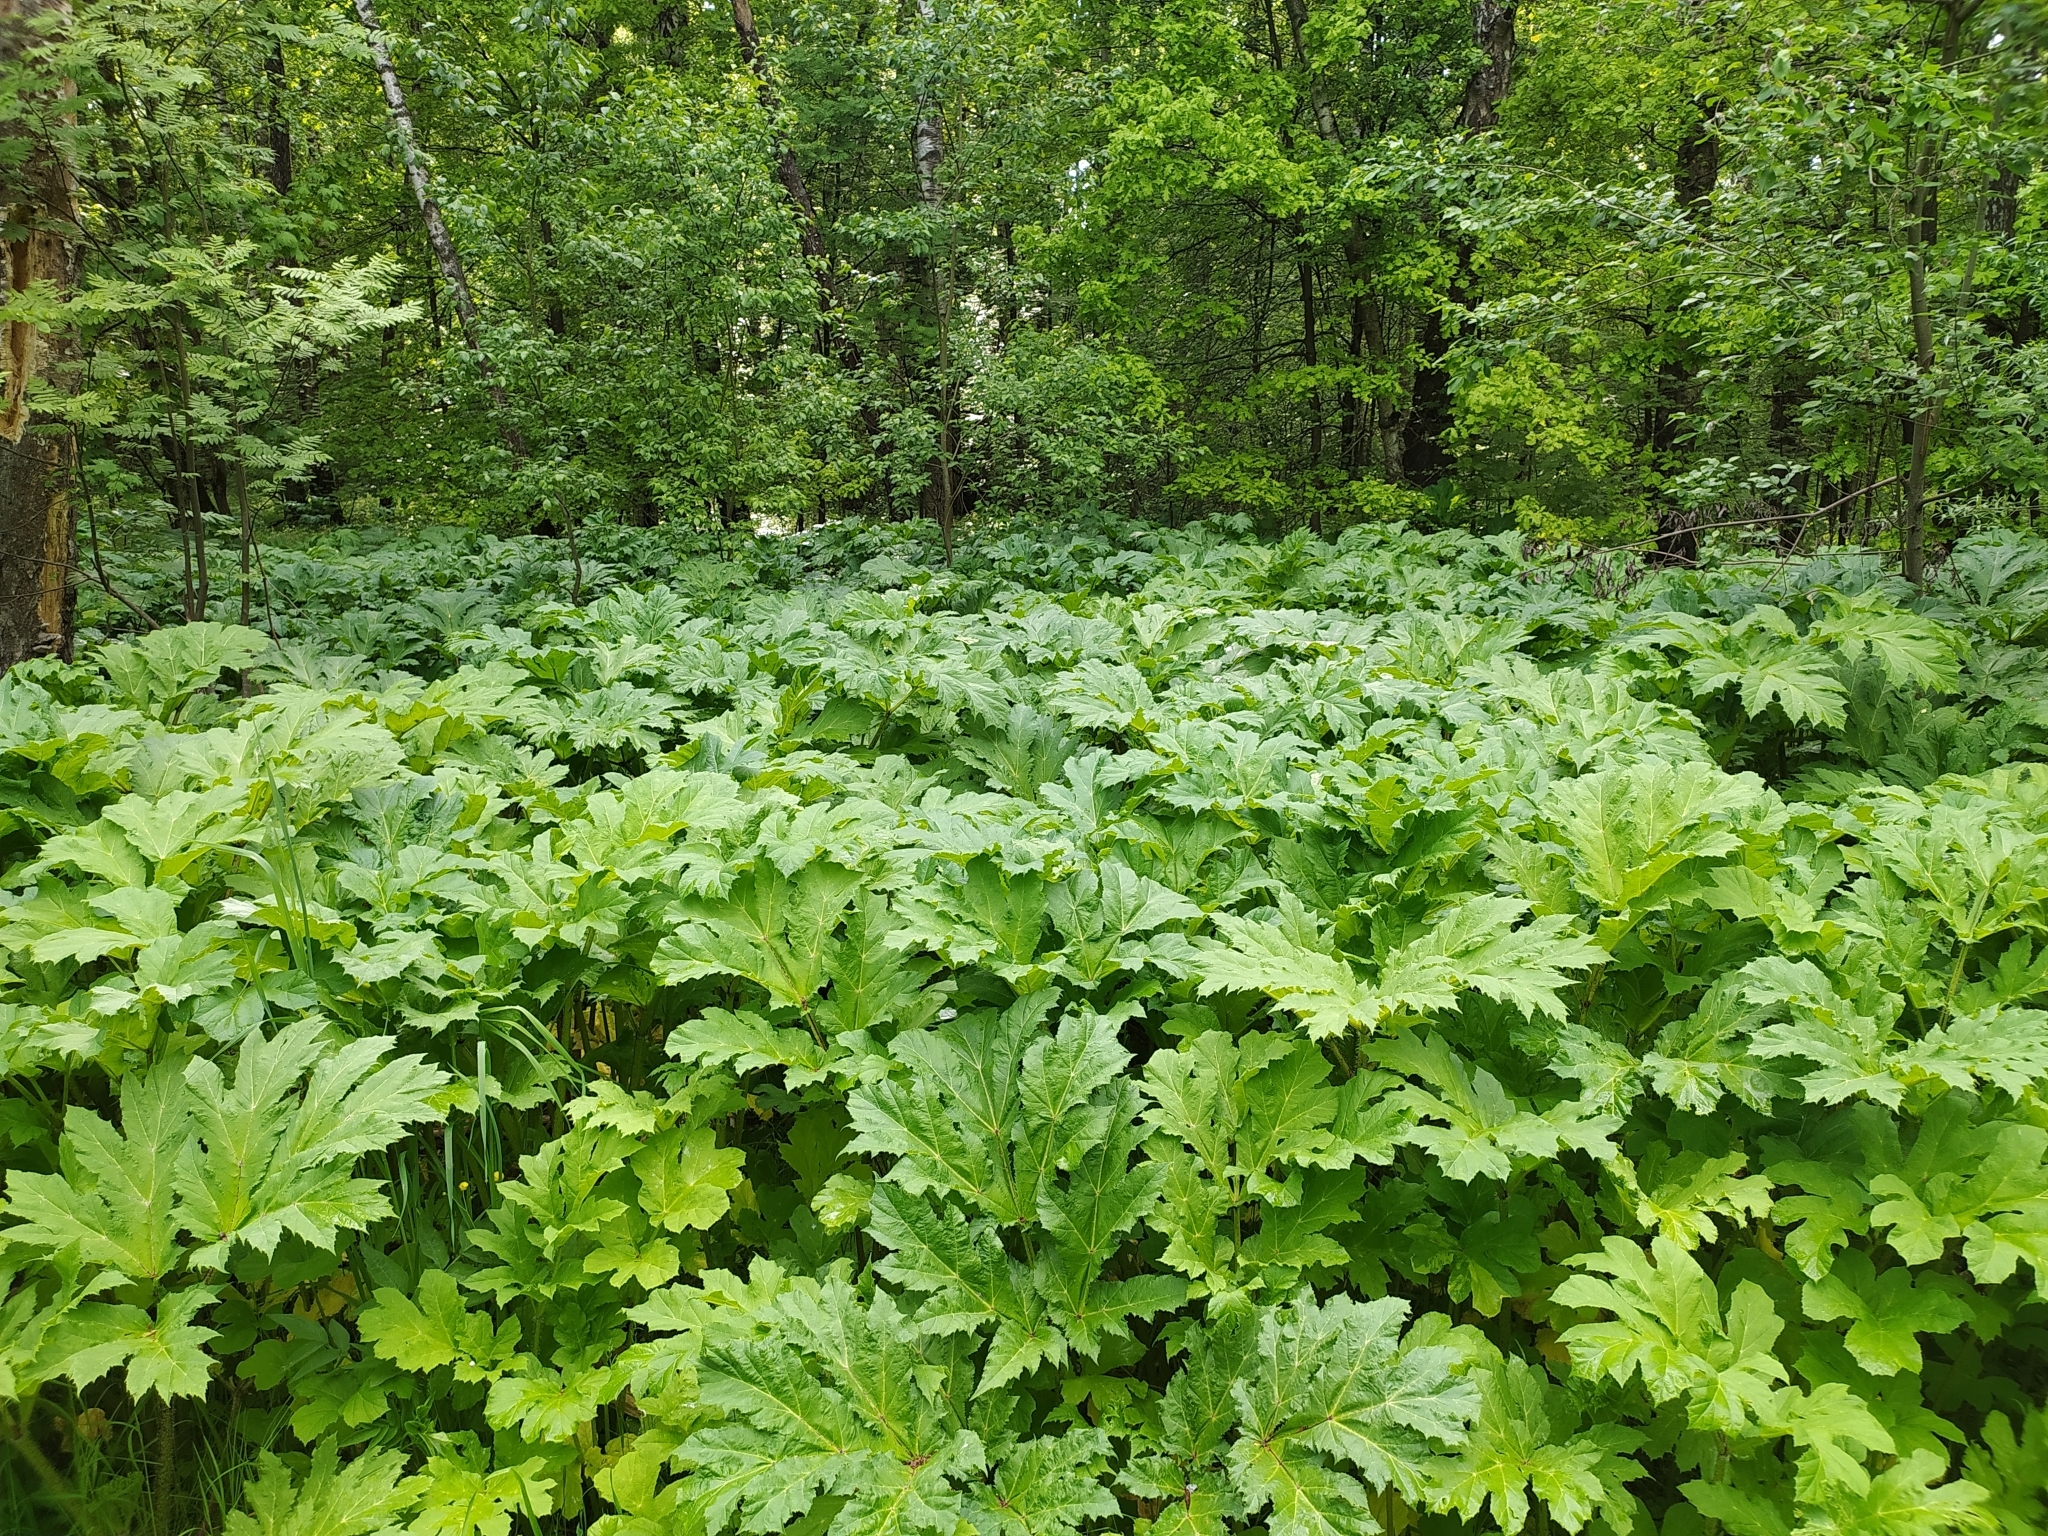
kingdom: Plantae
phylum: Tracheophyta
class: Magnoliopsida
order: Apiales
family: Apiaceae
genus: Heracleum
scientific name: Heracleum sosnowskyi
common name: Sosnowsky's hogweed
